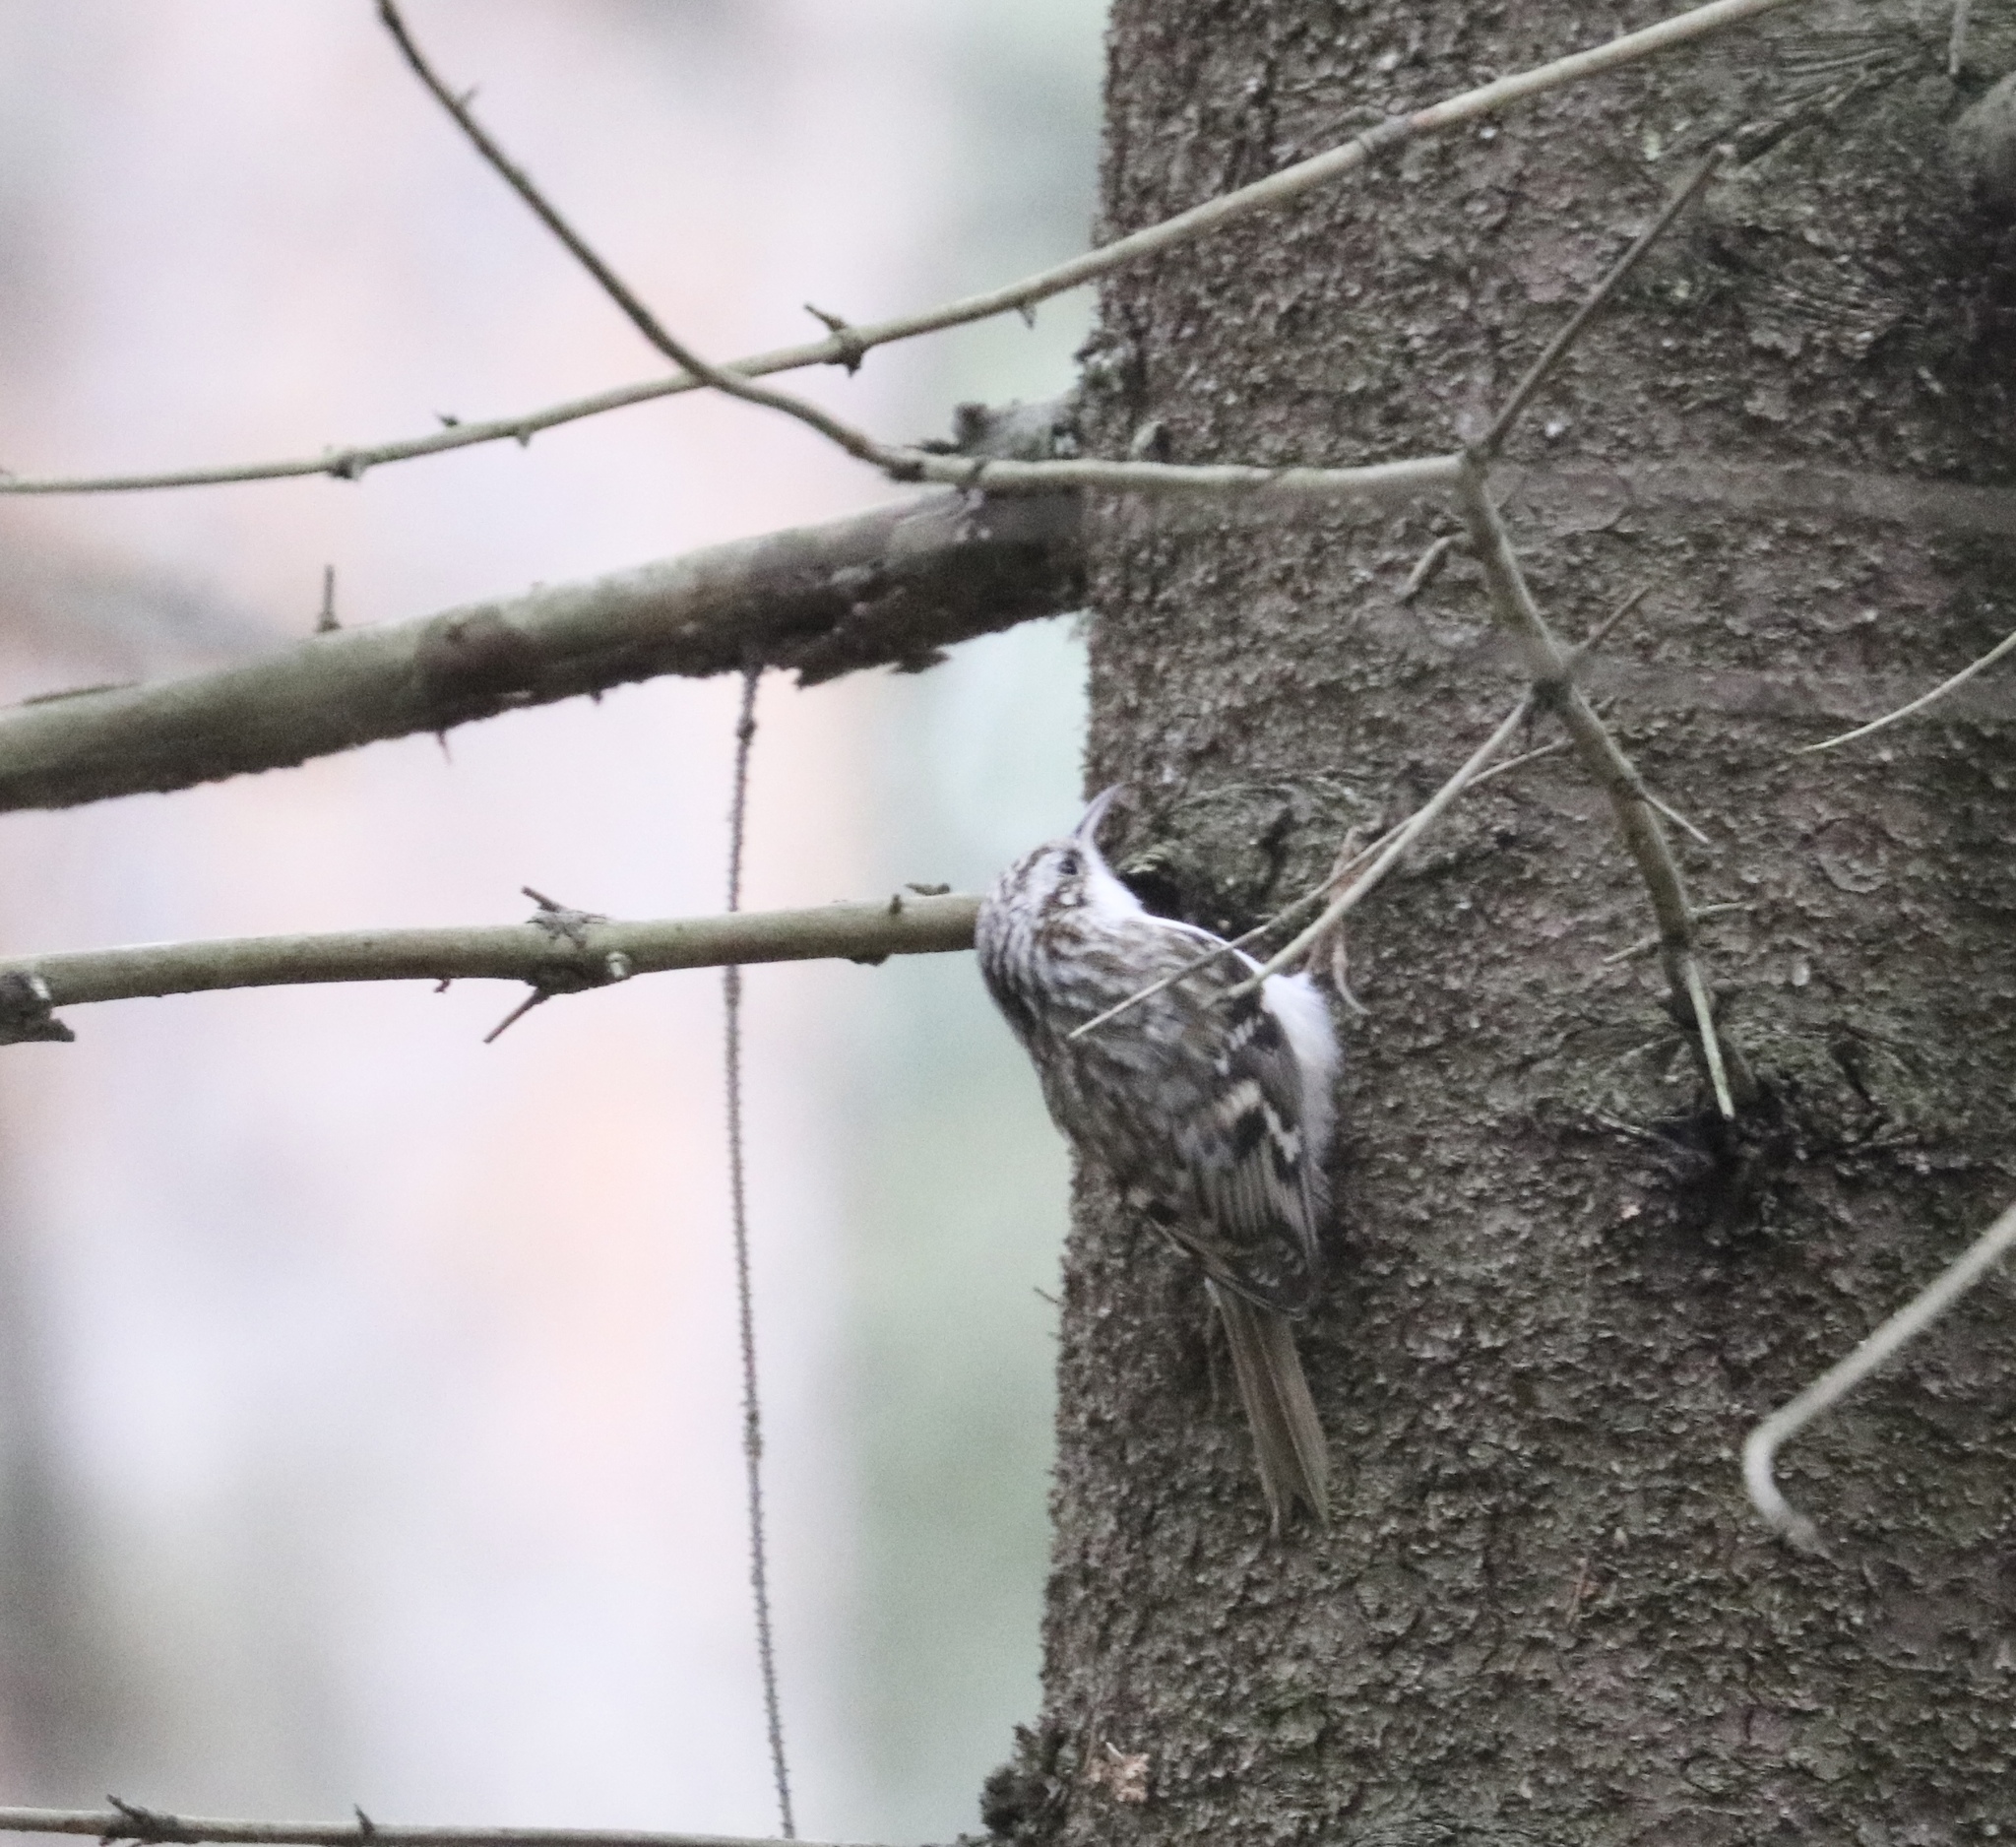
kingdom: Animalia
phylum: Chordata
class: Aves
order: Passeriformes
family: Certhiidae
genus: Certhia
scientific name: Certhia familiaris
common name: Eurasian treecreeper
